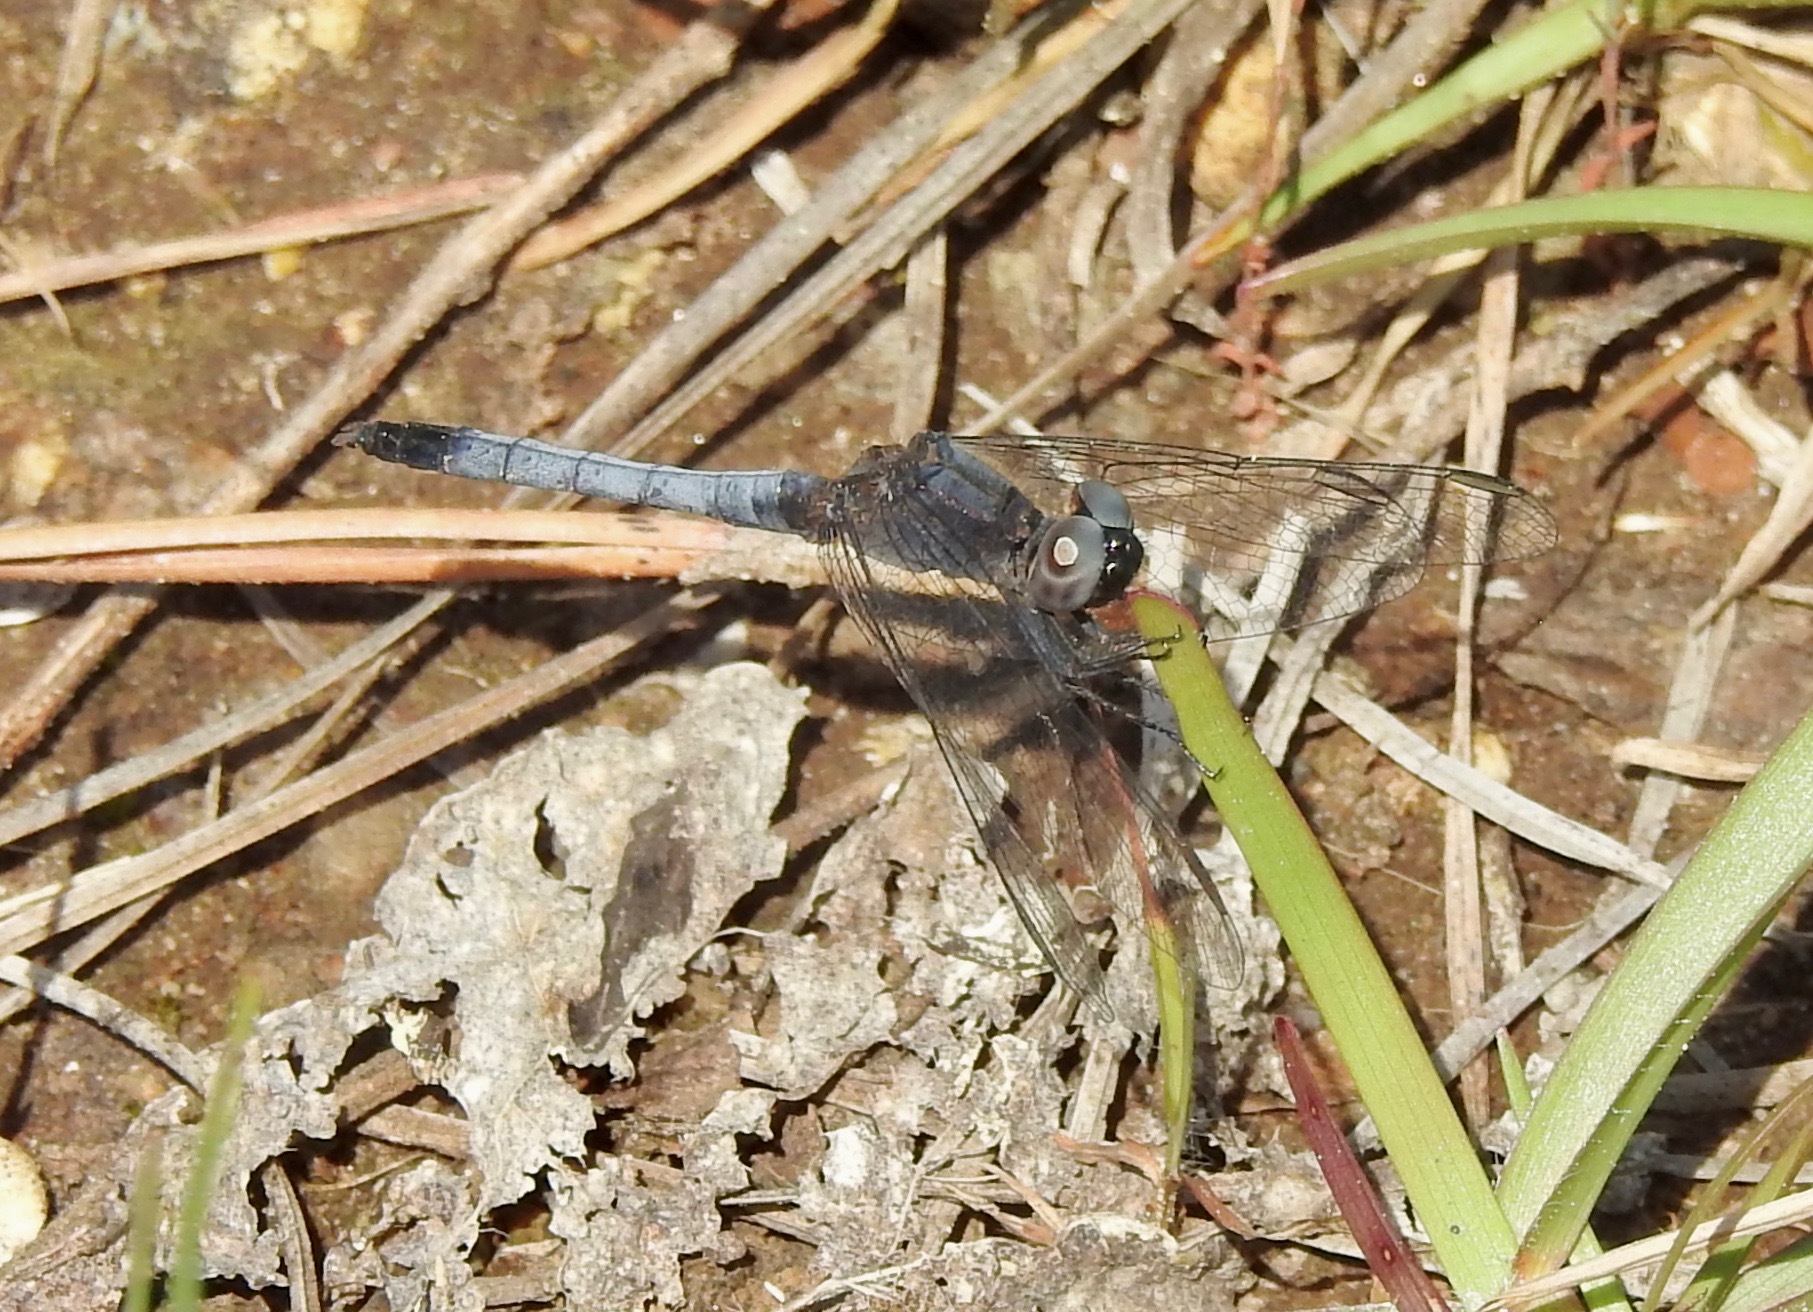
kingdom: Animalia
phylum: Arthropoda
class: Insecta
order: Odonata
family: Libellulidae
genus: Erythrodiplax
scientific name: Erythrodiplax minuscula
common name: Little blue dragonlet
